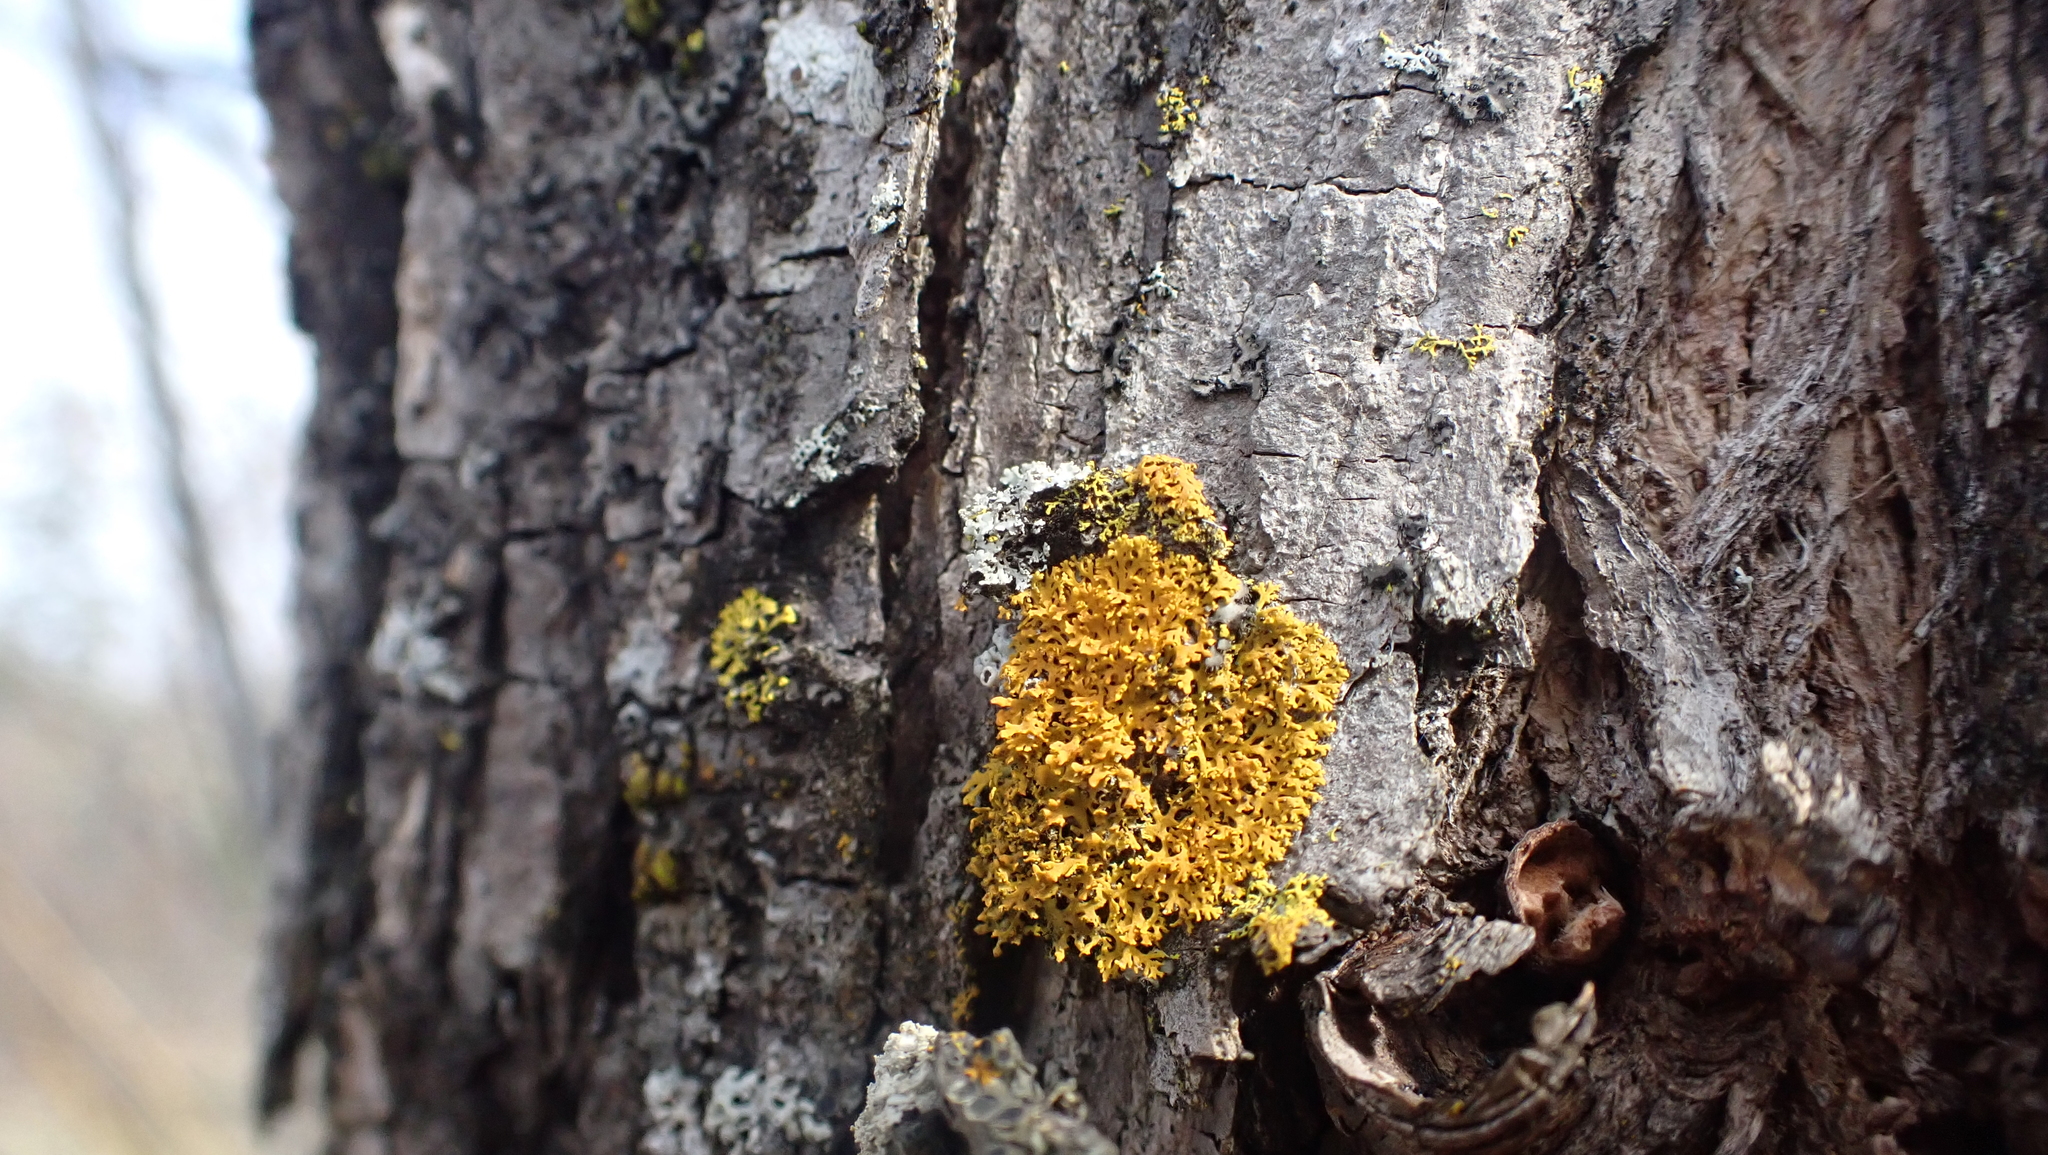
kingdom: Fungi
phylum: Ascomycota
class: Lecanoromycetes
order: Teloschistales
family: Teloschistaceae
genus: Gallowayella
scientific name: Gallowayella weberi
